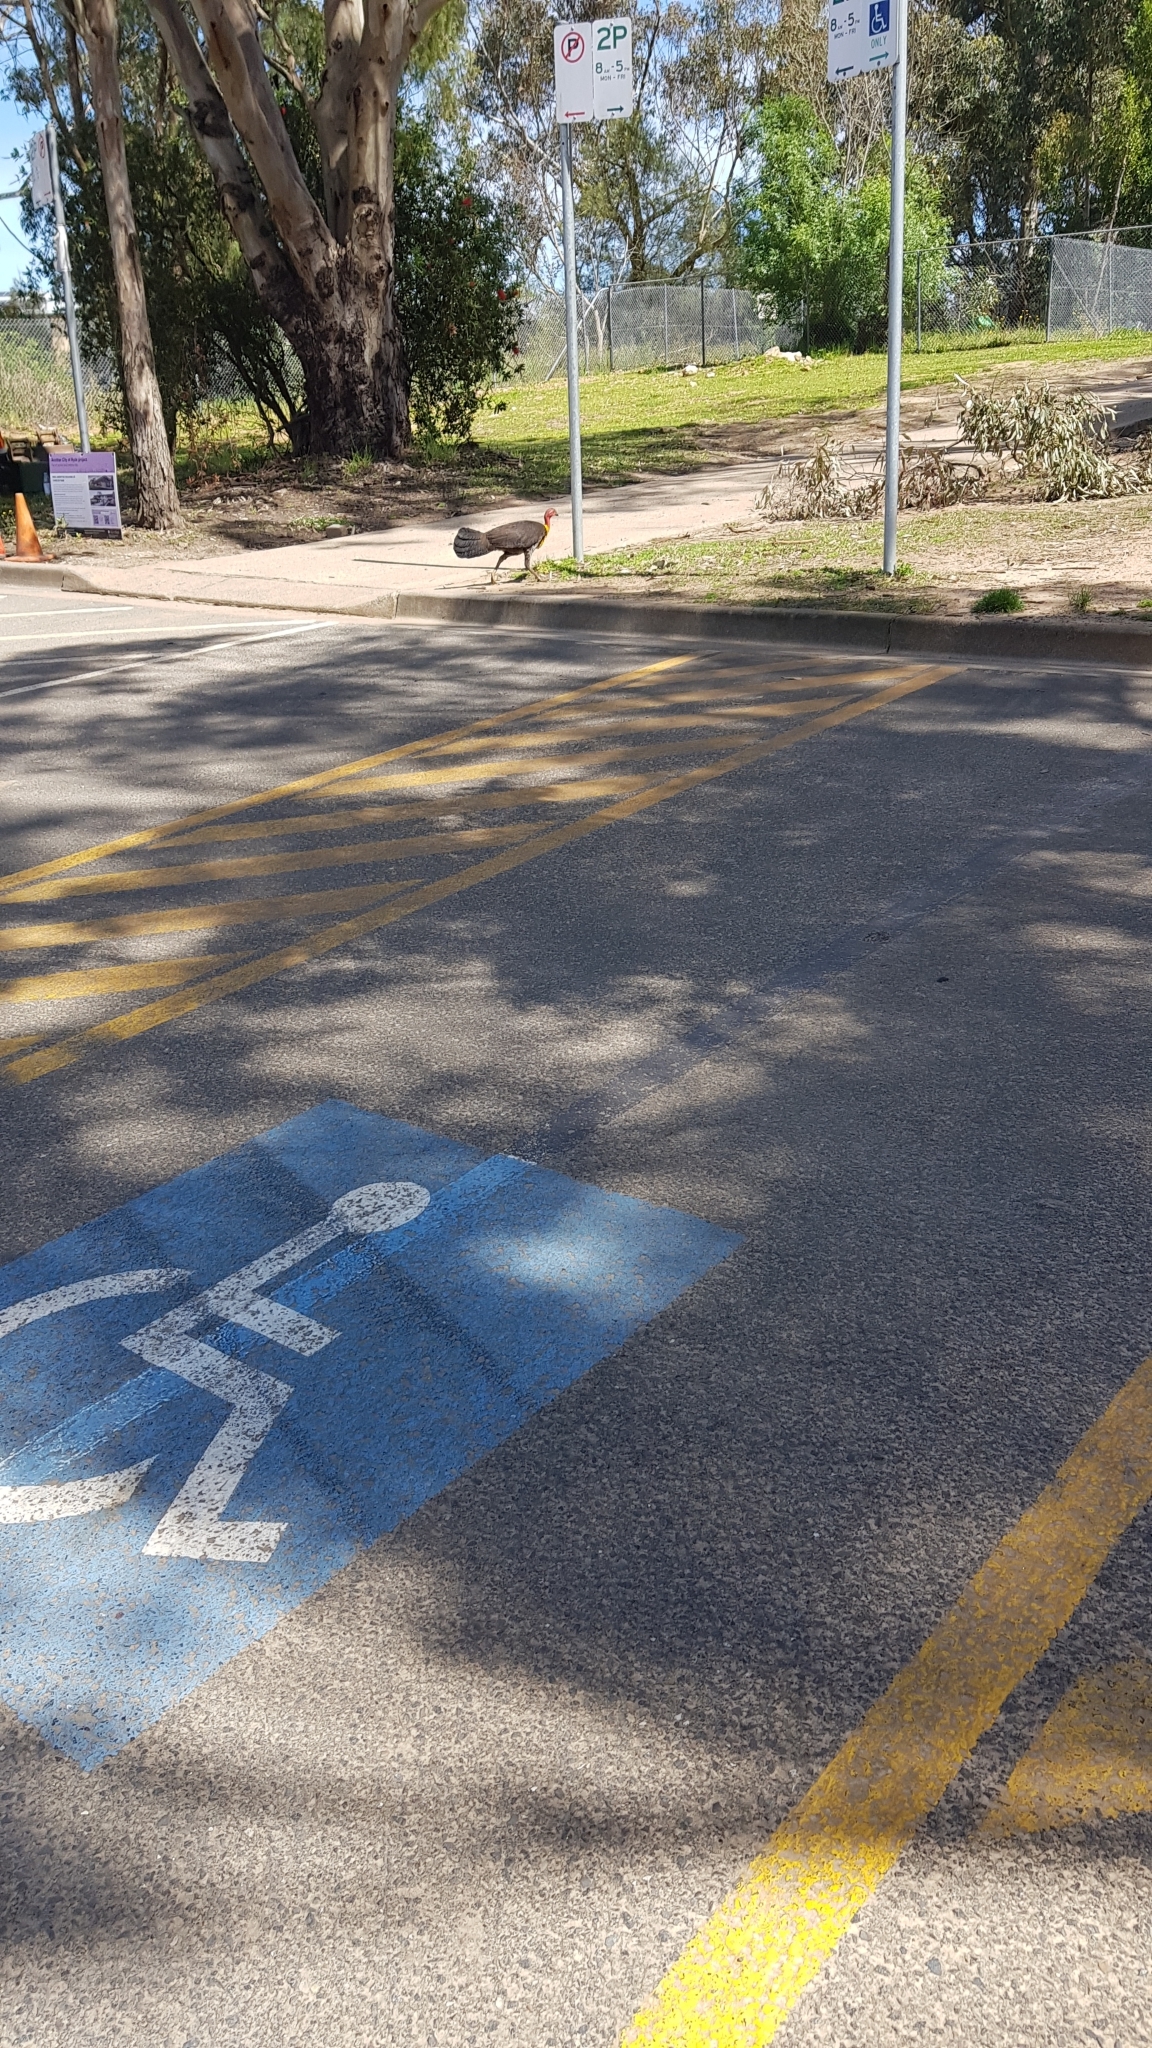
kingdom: Animalia
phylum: Chordata
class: Aves
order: Galliformes
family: Megapodiidae
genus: Alectura
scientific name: Alectura lathami
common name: Australian brushturkey
